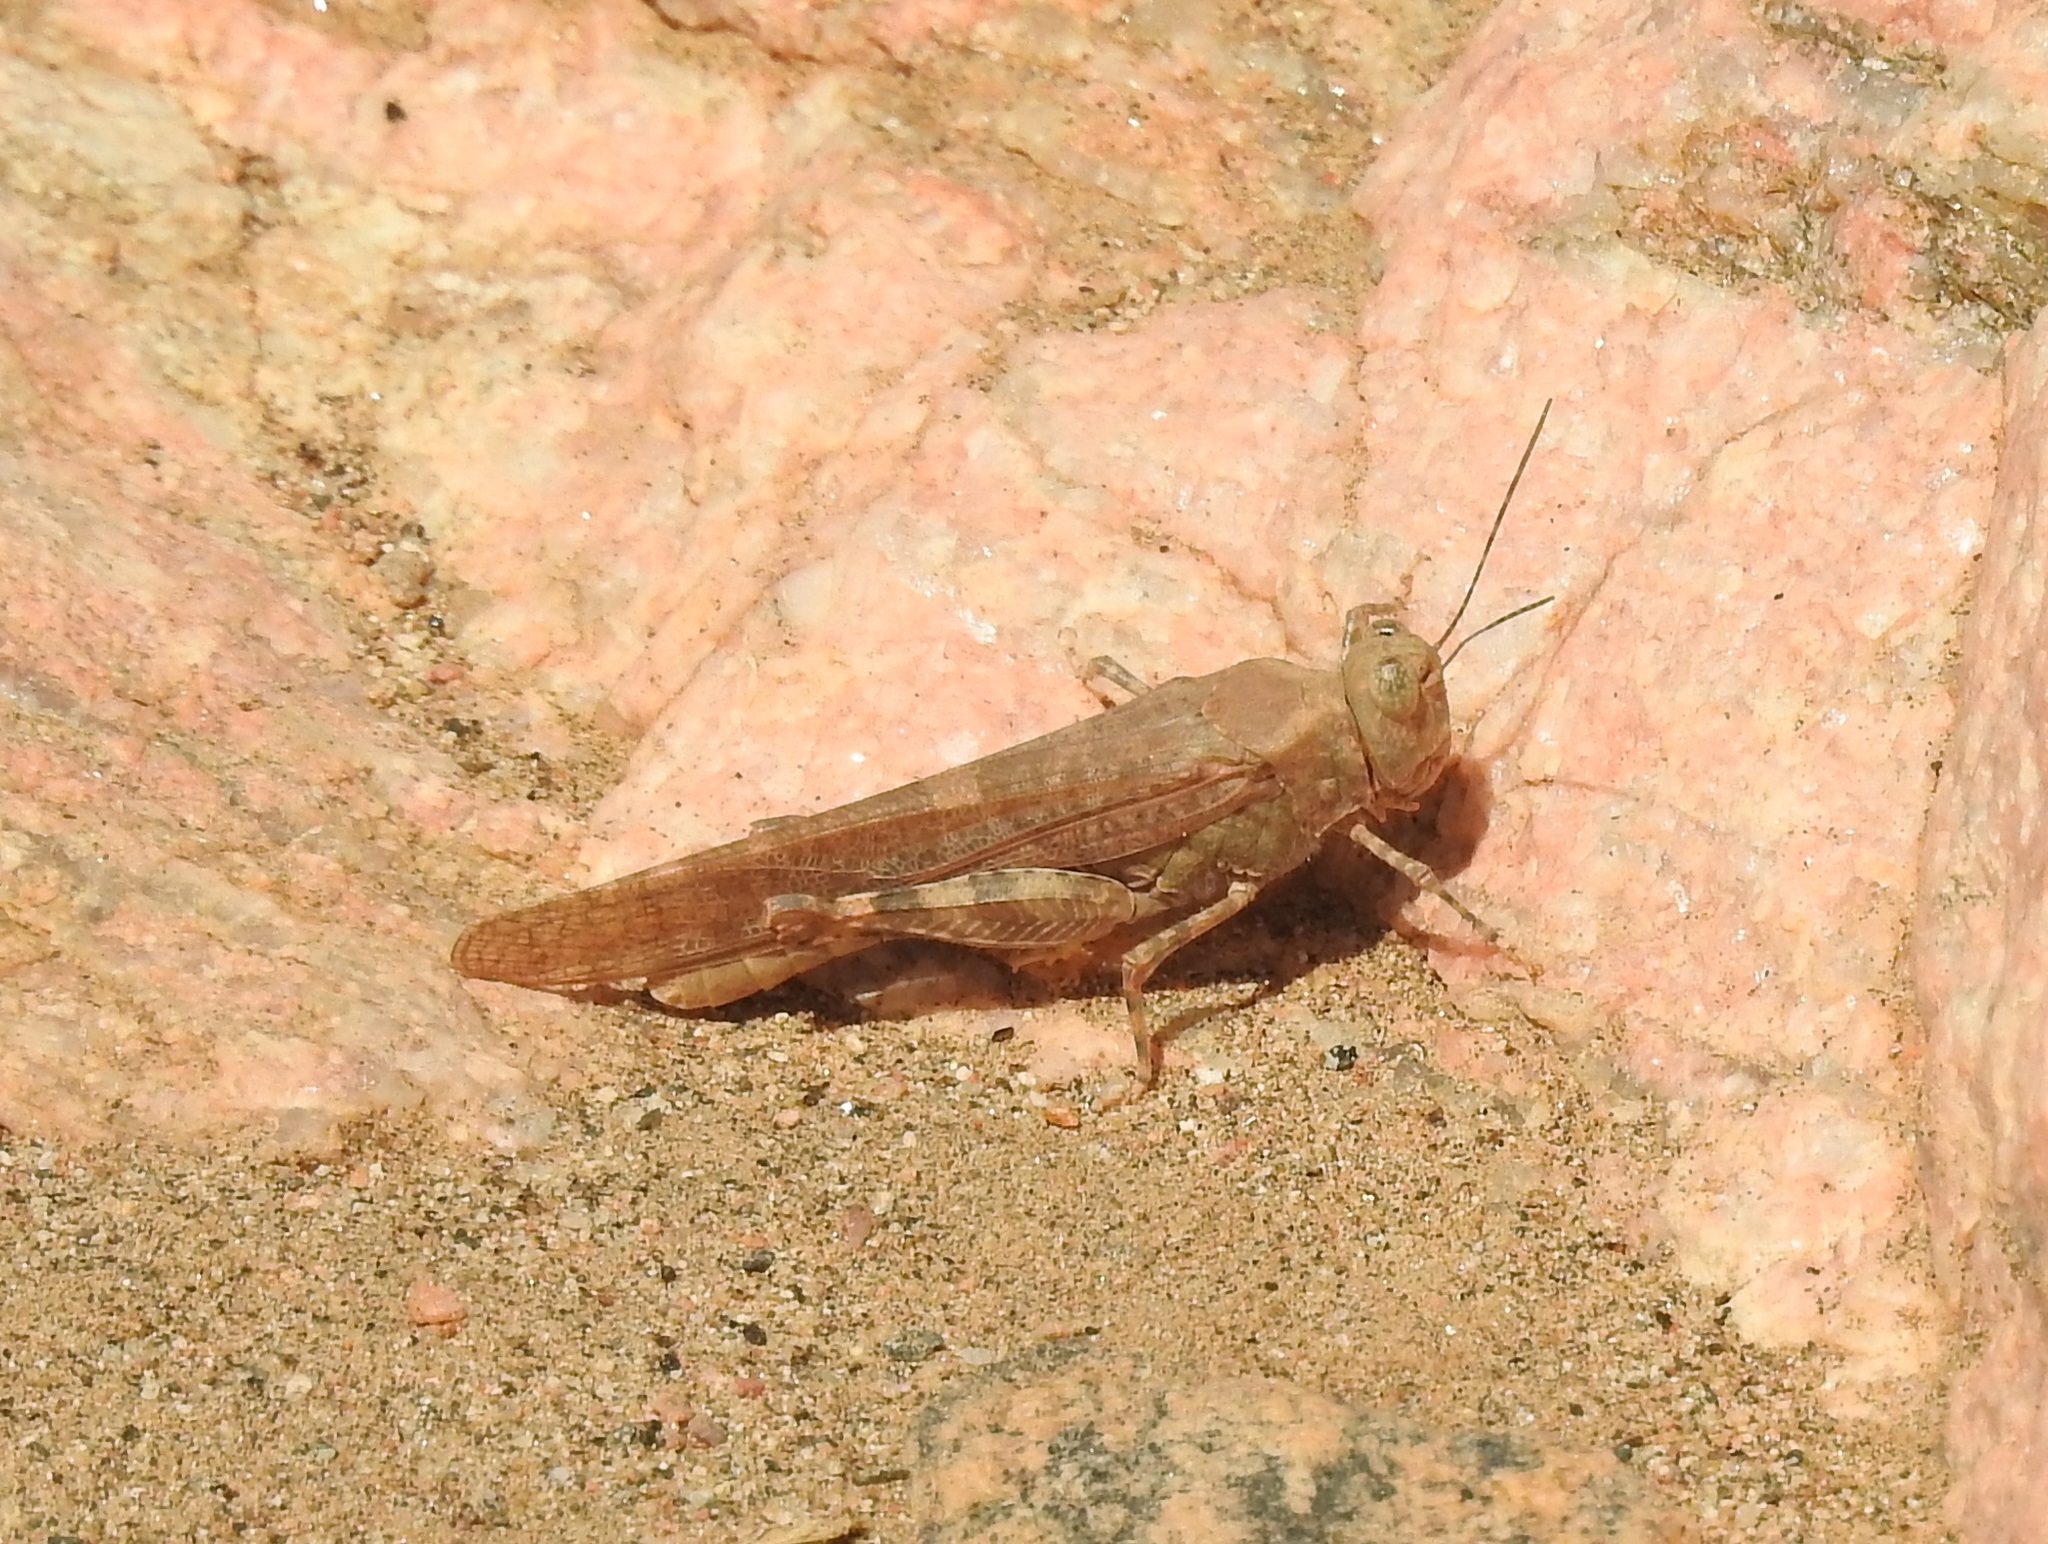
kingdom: Animalia
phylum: Arthropoda
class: Insecta
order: Orthoptera
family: Acrididae
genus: Sphingonotus
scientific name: Sphingonotus rubescens
